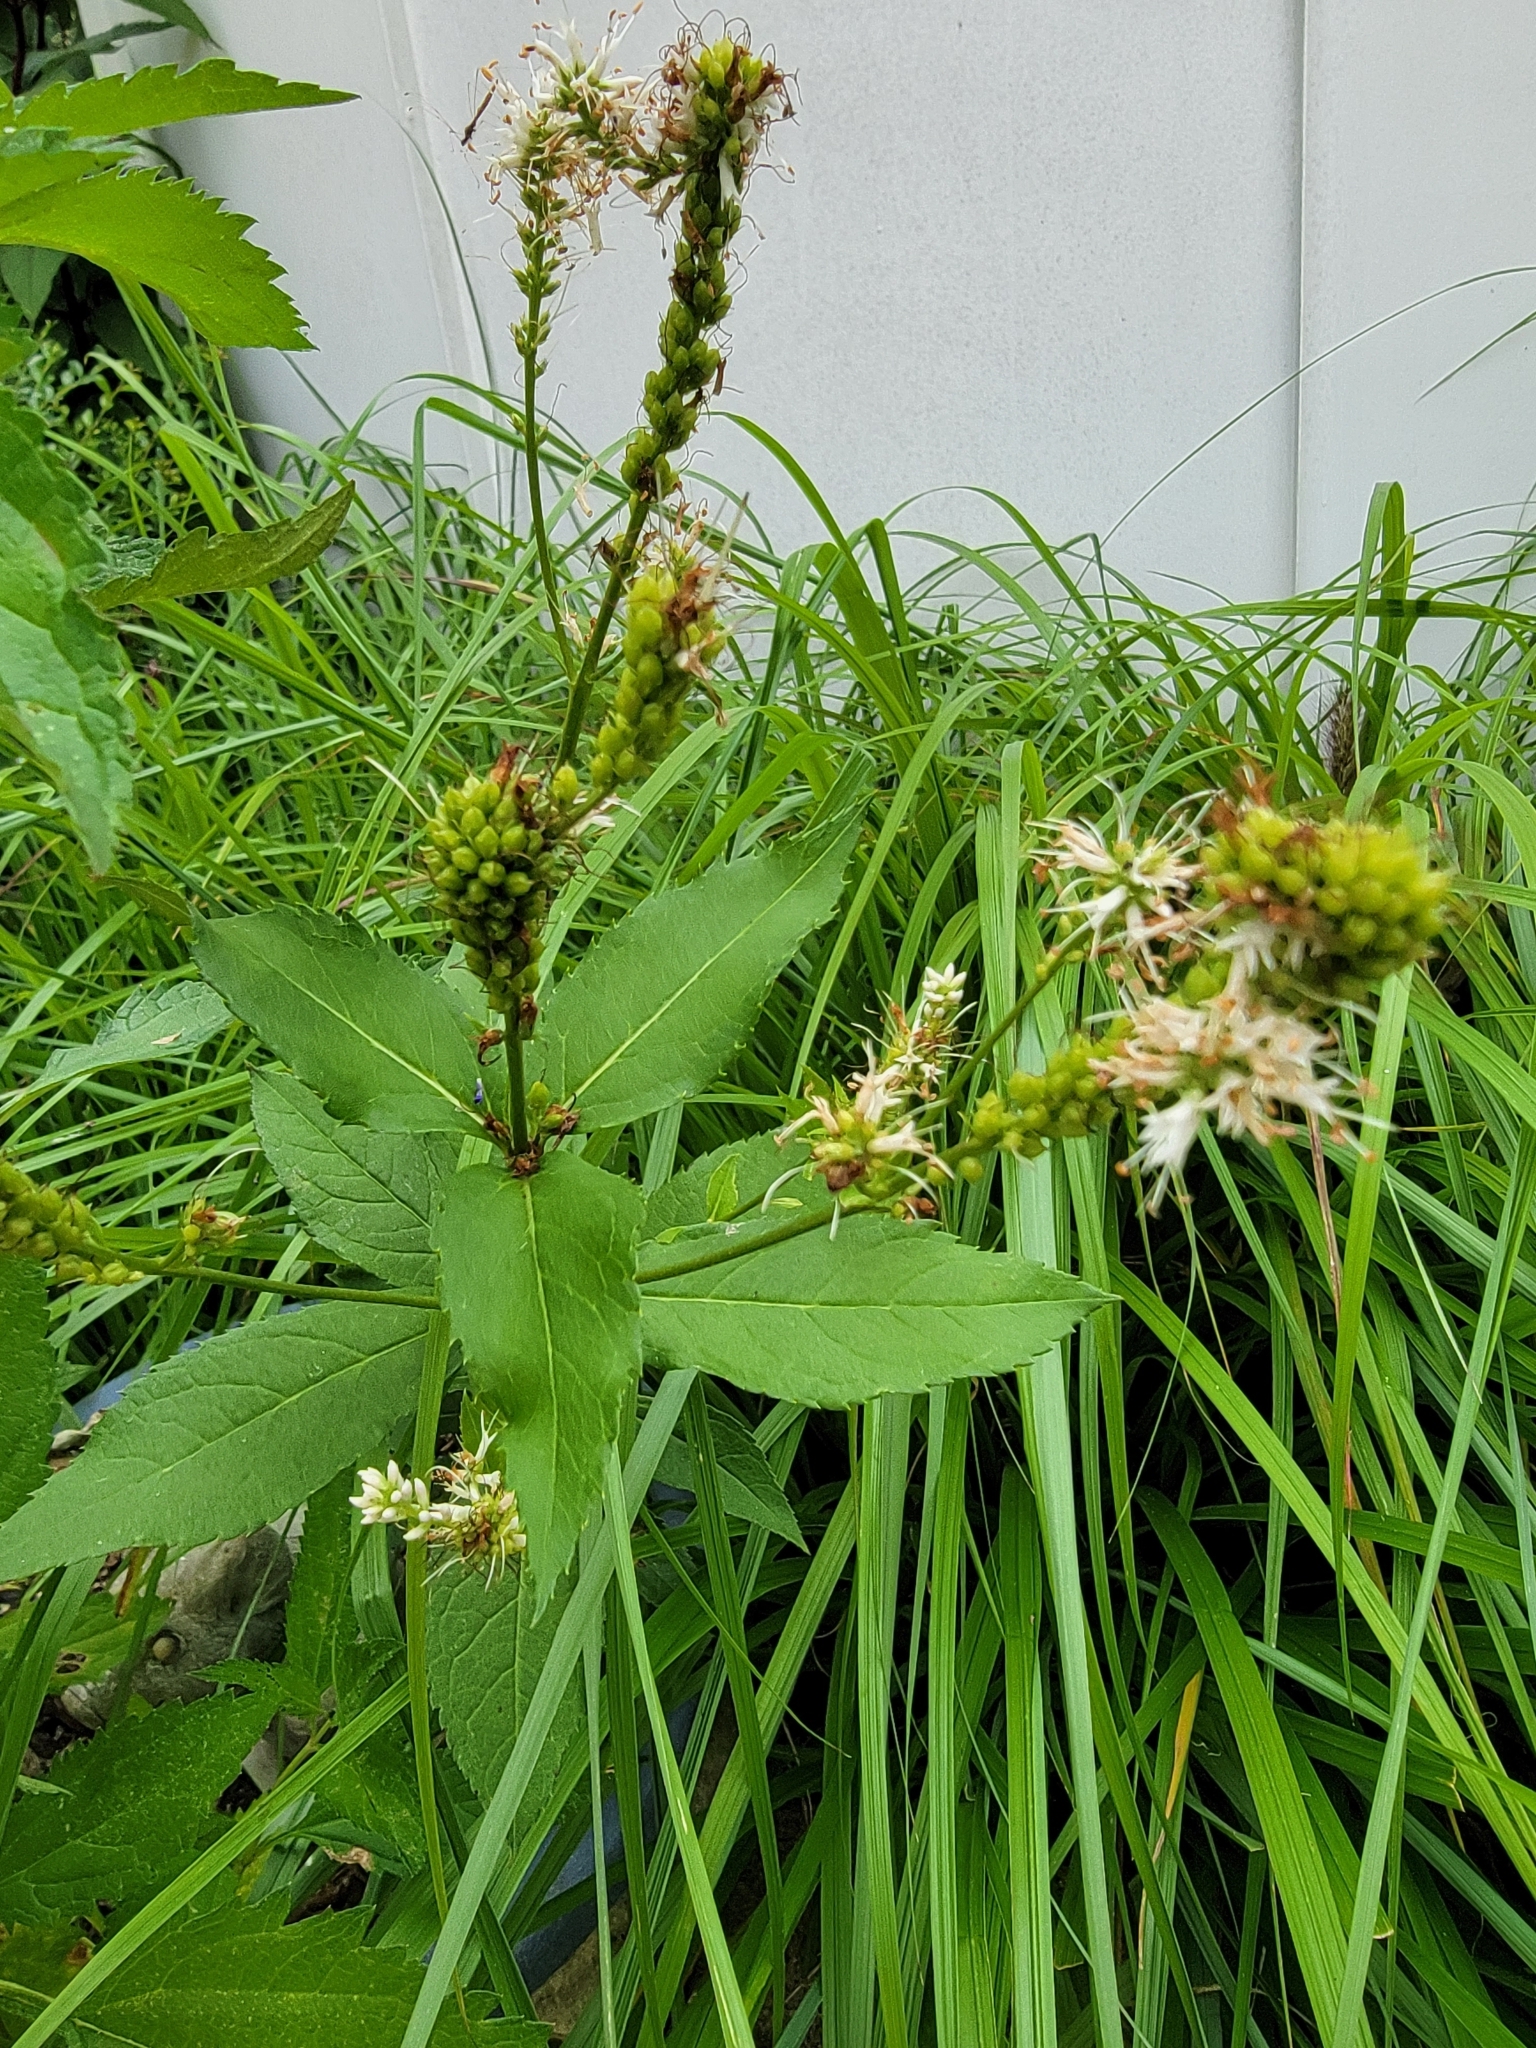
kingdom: Plantae
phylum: Tracheophyta
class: Magnoliopsida
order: Lamiales
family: Plantaginaceae
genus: Veronicastrum
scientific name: Veronicastrum virginicum
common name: Blackroot
